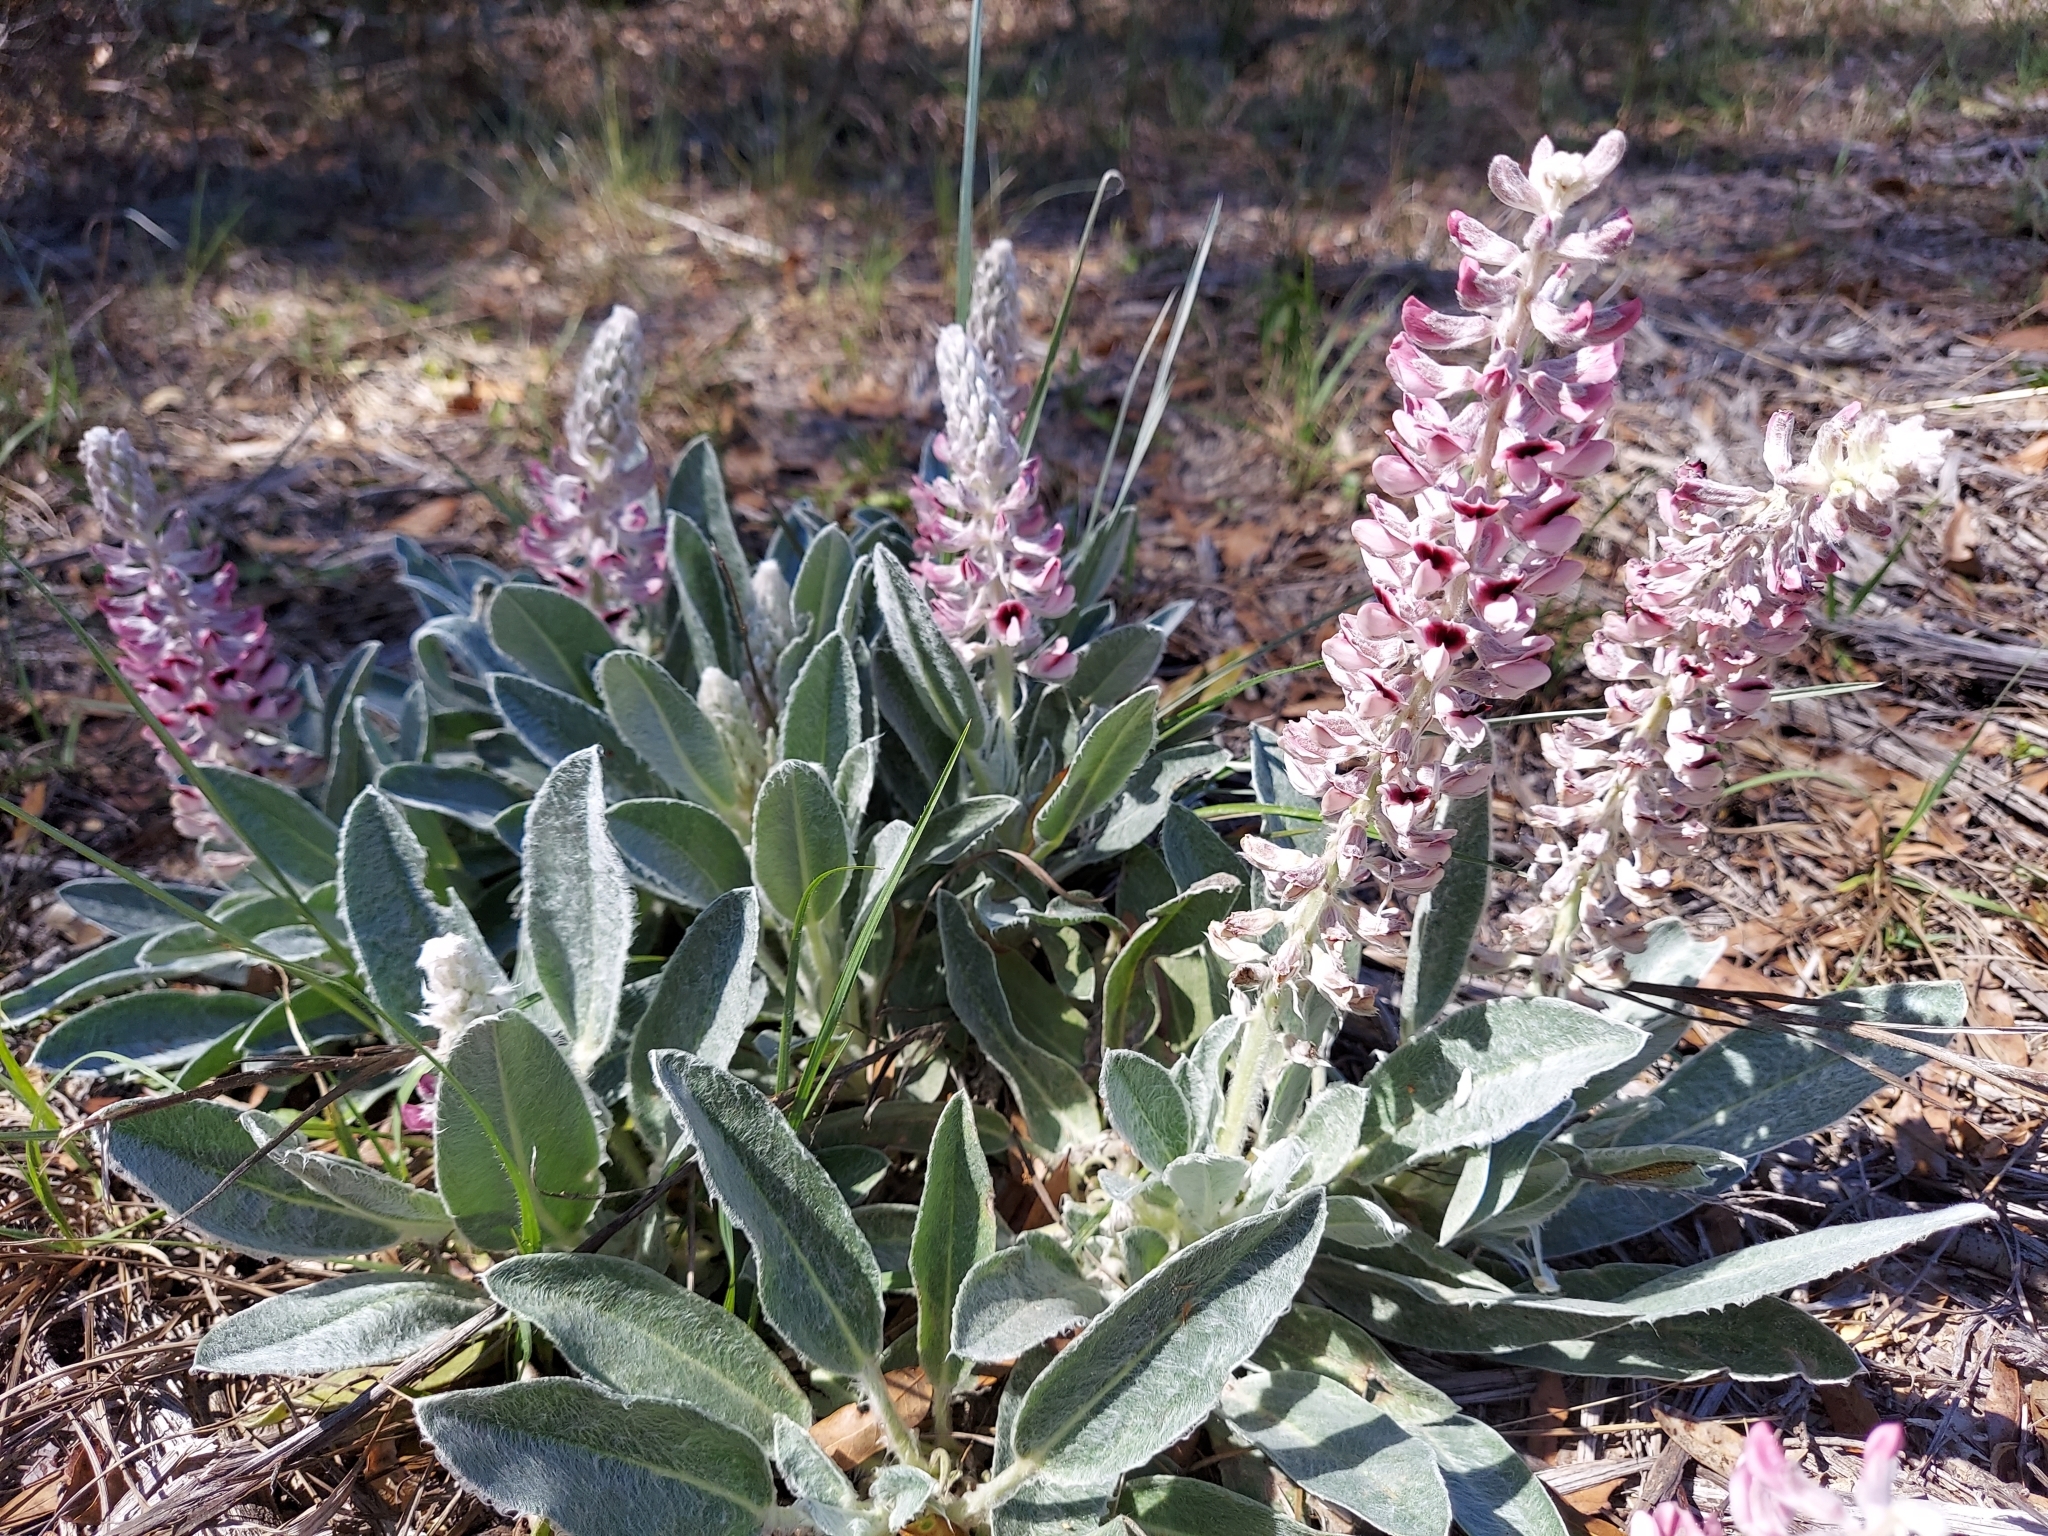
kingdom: Plantae
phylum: Tracheophyta
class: Magnoliopsida
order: Fabales
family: Fabaceae
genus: Lupinus
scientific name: Lupinus villosus
